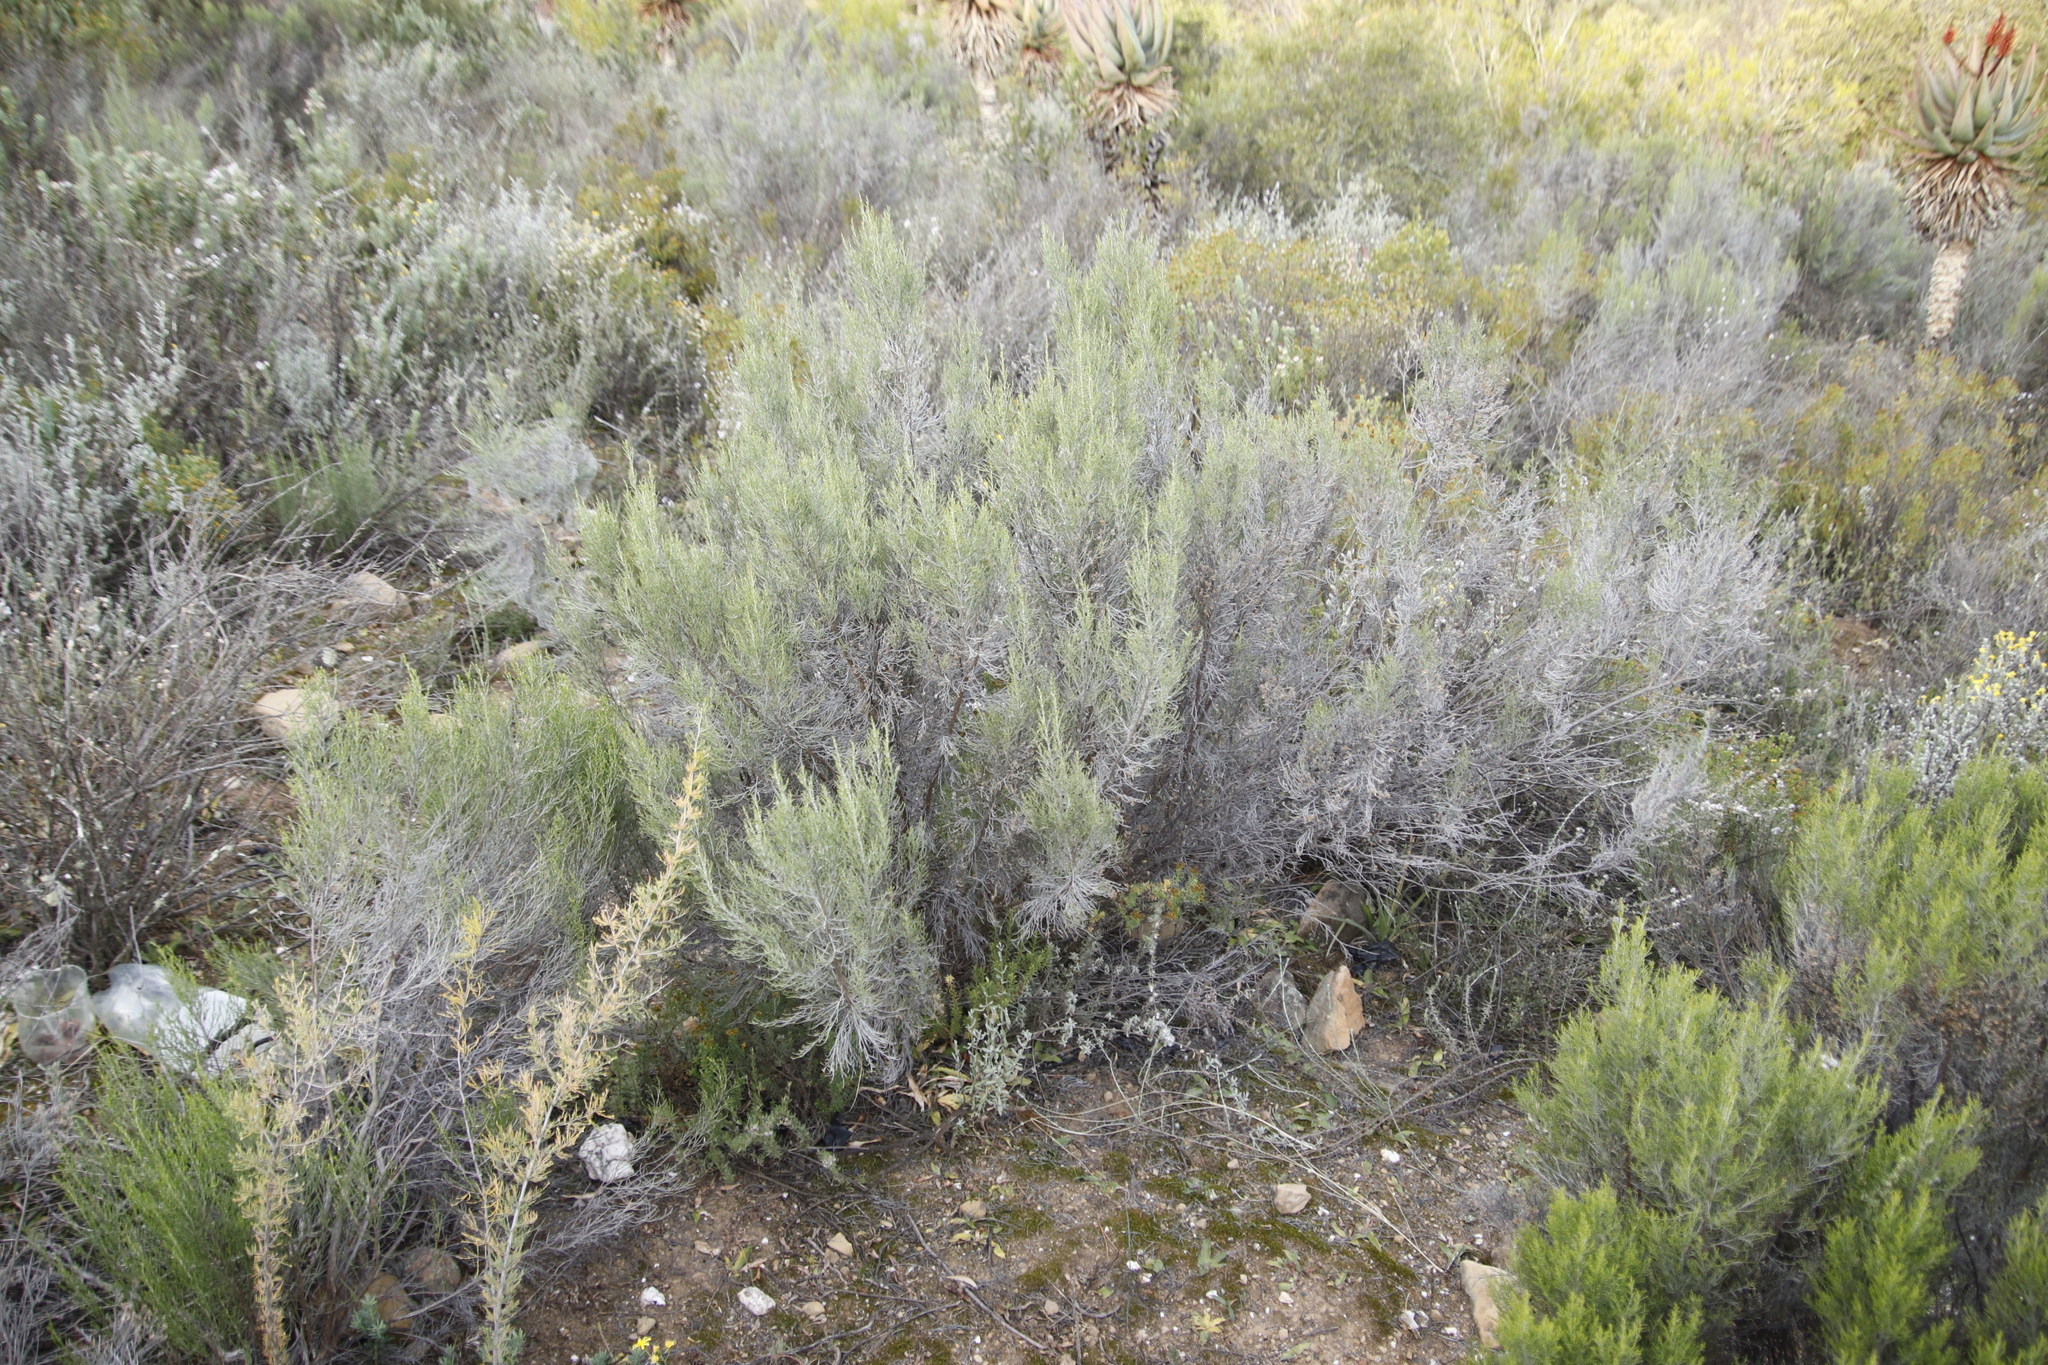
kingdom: Plantae
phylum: Tracheophyta
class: Magnoliopsida
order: Asterales
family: Asteraceae
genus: Dicerothamnus
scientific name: Dicerothamnus rhinocerotis
